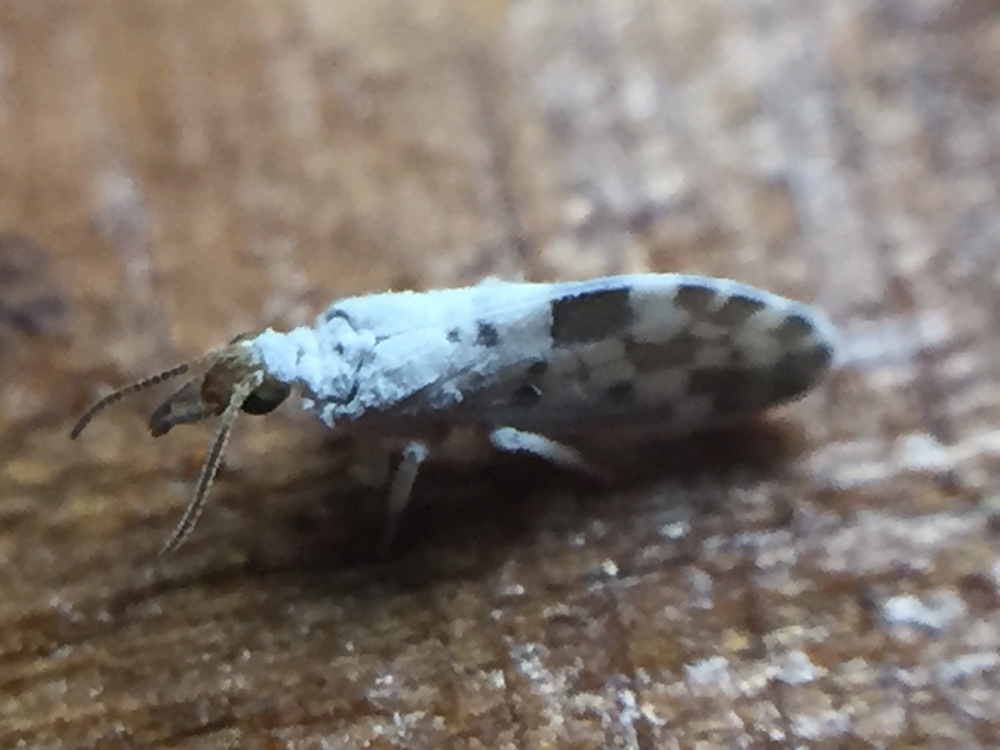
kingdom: Animalia
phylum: Arthropoda
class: Insecta
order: Neuroptera
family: Coniopterygidae
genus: Heteroconis
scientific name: Heteroconis ornata
